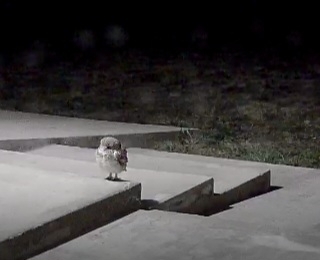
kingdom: Animalia
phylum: Chordata
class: Aves
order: Strigiformes
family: Strigidae
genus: Athene
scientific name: Athene cunicularia
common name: Burrowing owl
